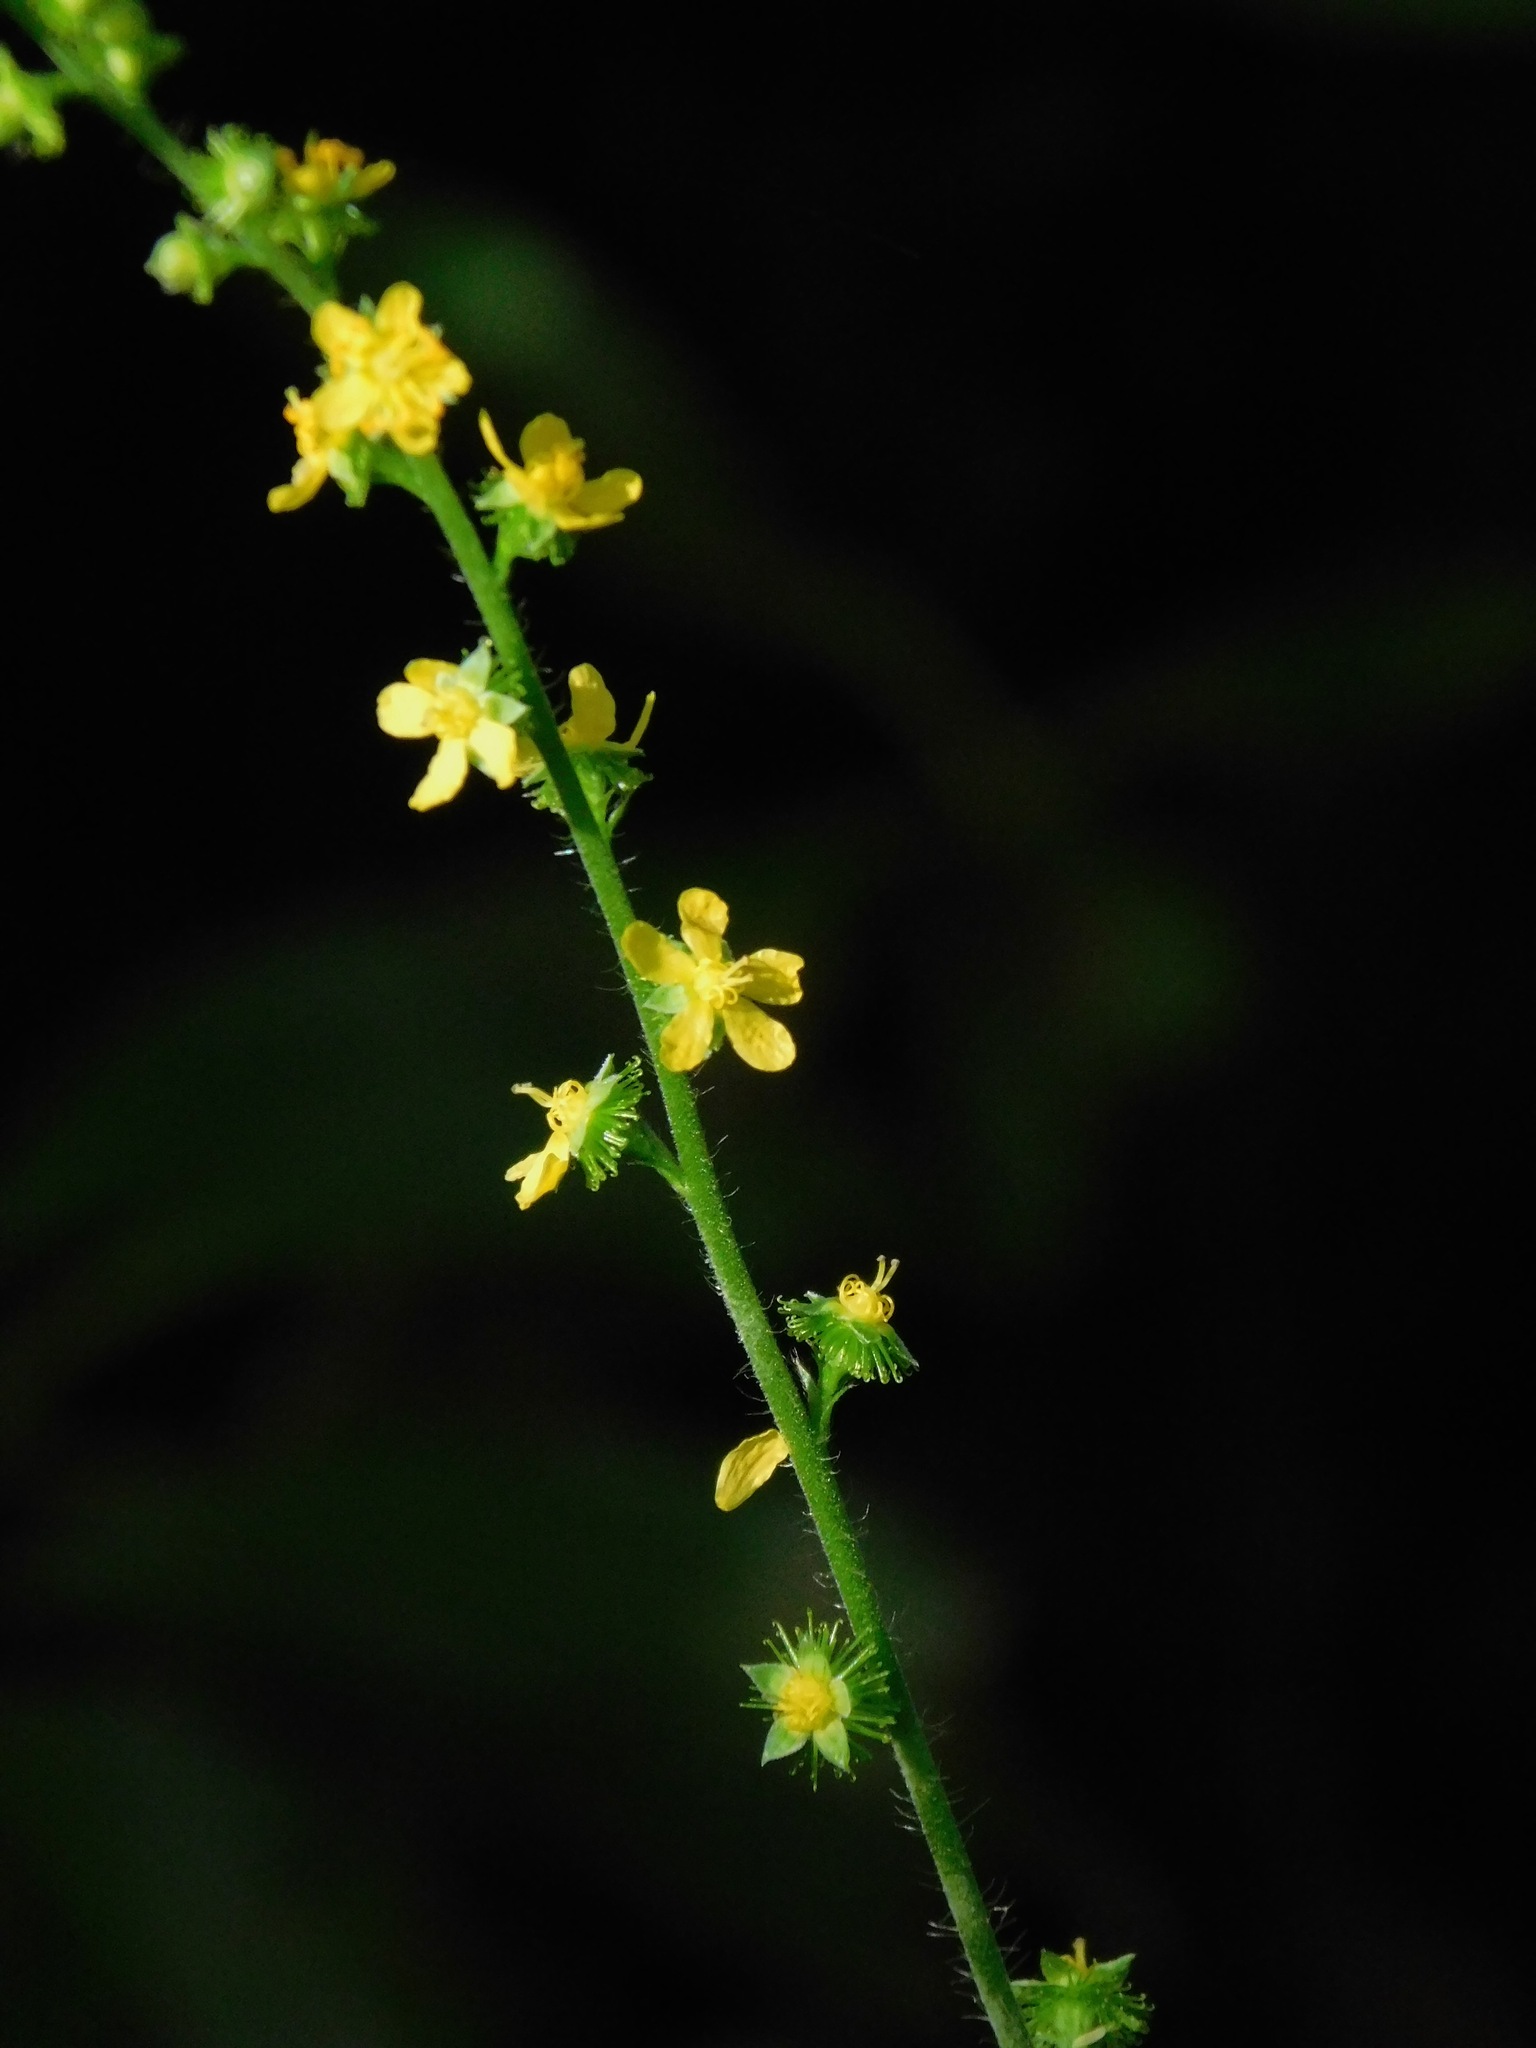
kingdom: Plantae
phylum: Tracheophyta
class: Magnoliopsida
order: Rosales
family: Rosaceae
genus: Agrimonia
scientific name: Agrimonia gryposepala
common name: Common agrimony
